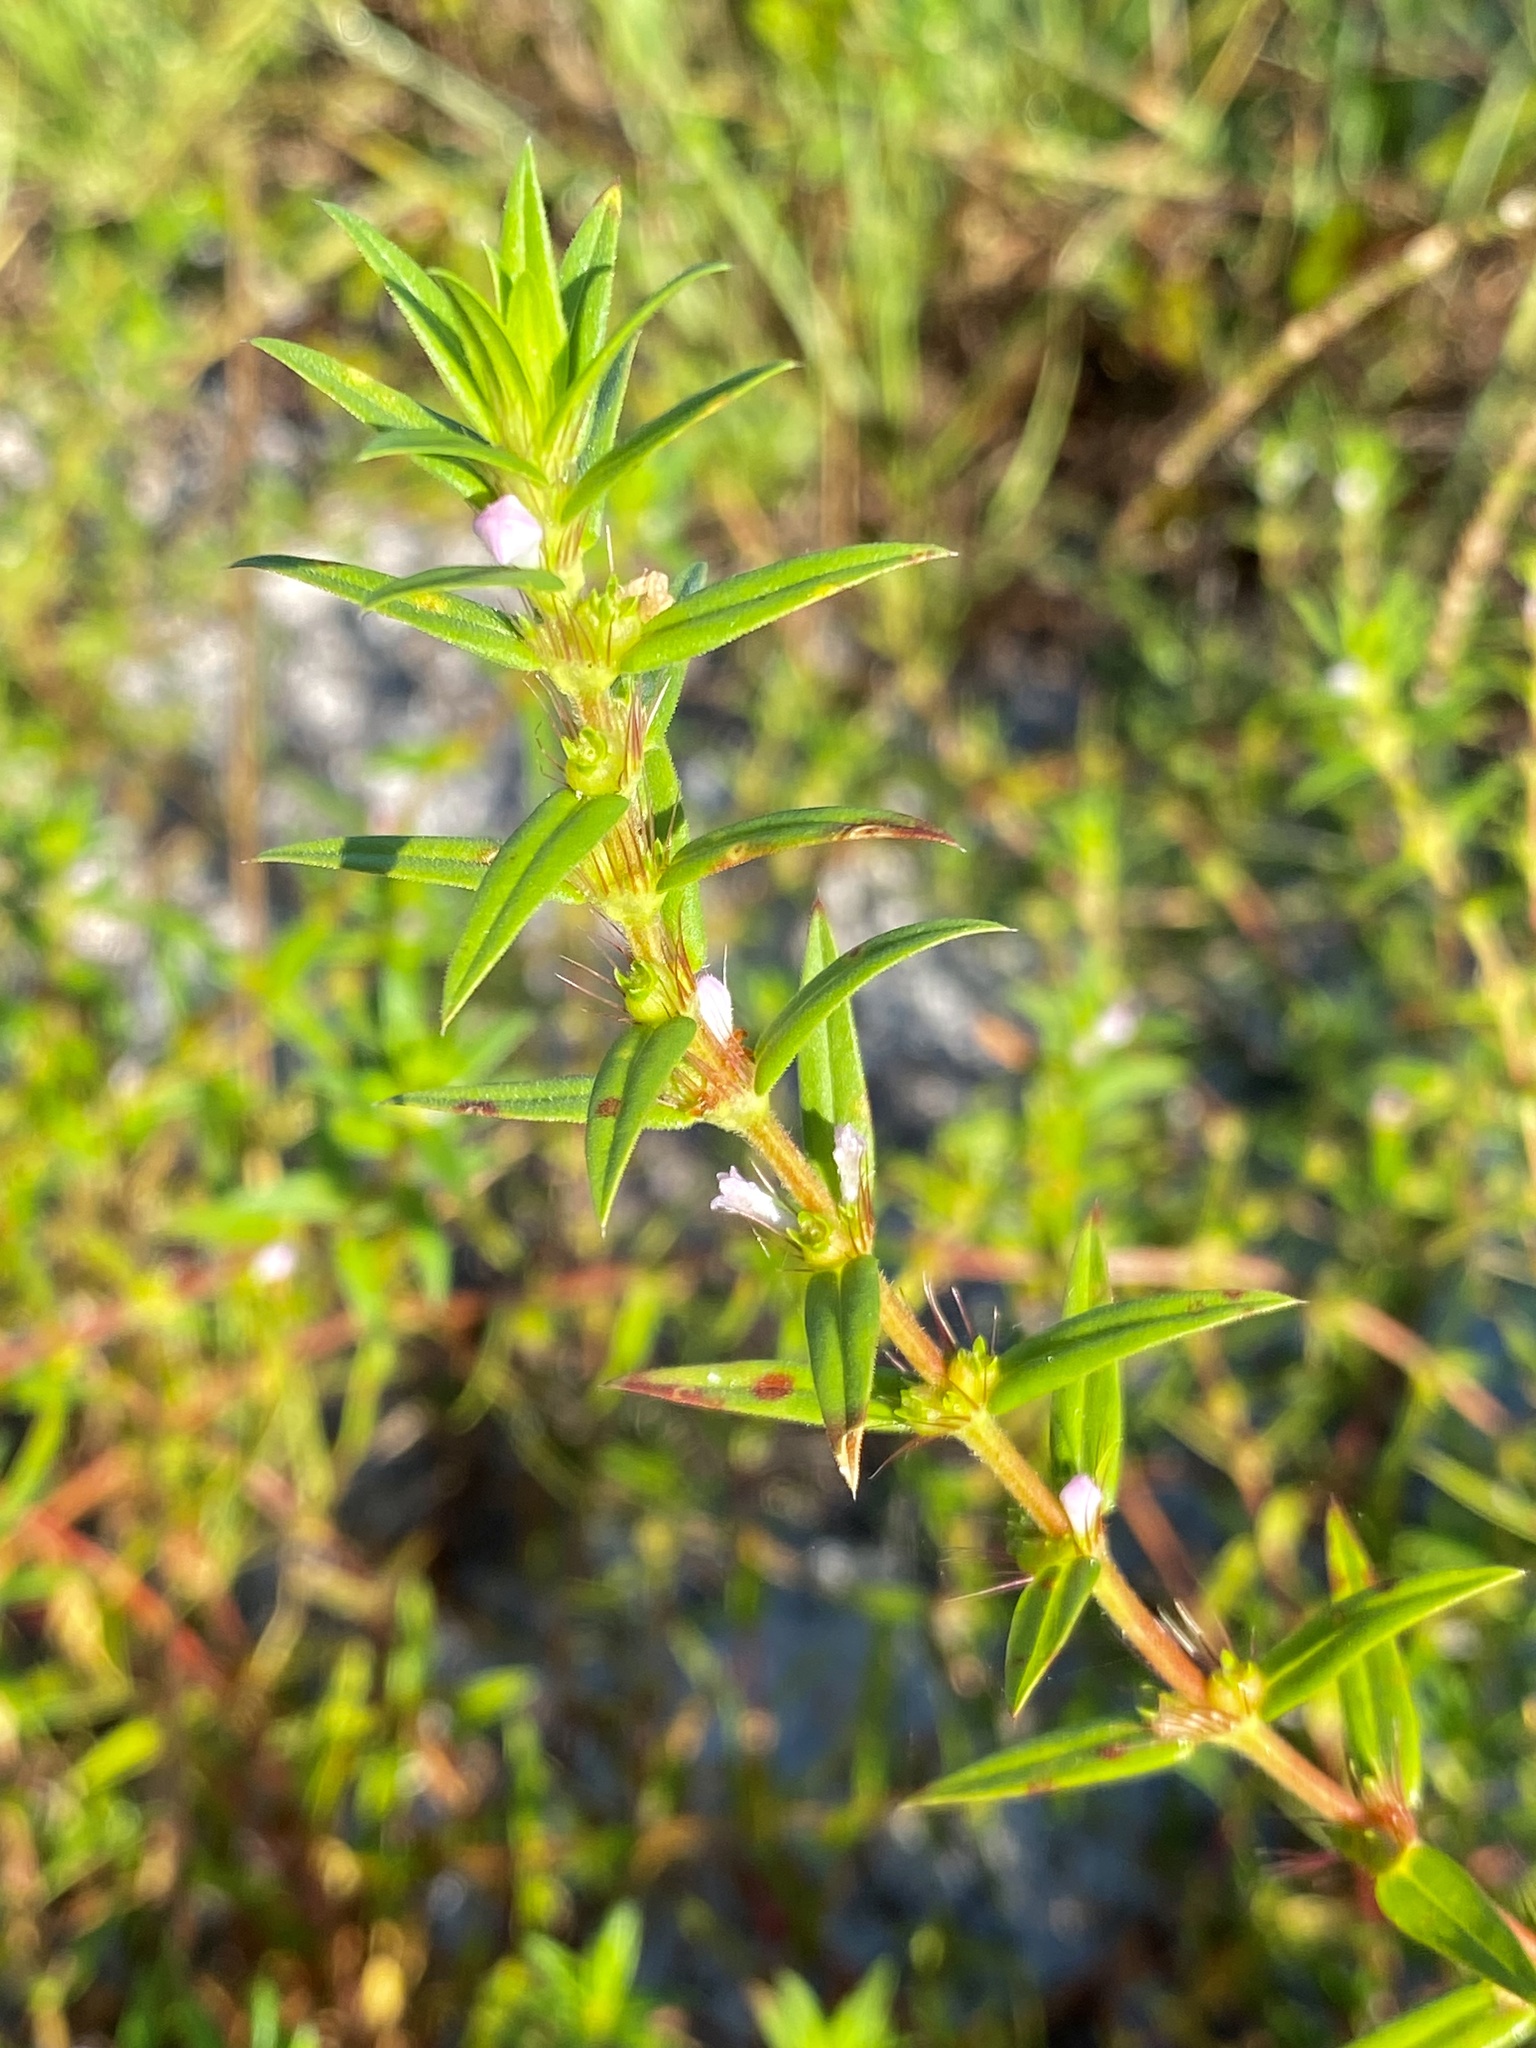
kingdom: Plantae
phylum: Tracheophyta
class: Magnoliopsida
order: Gentianales
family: Rubiaceae
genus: Hexasepalum
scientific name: Hexasepalum teres
